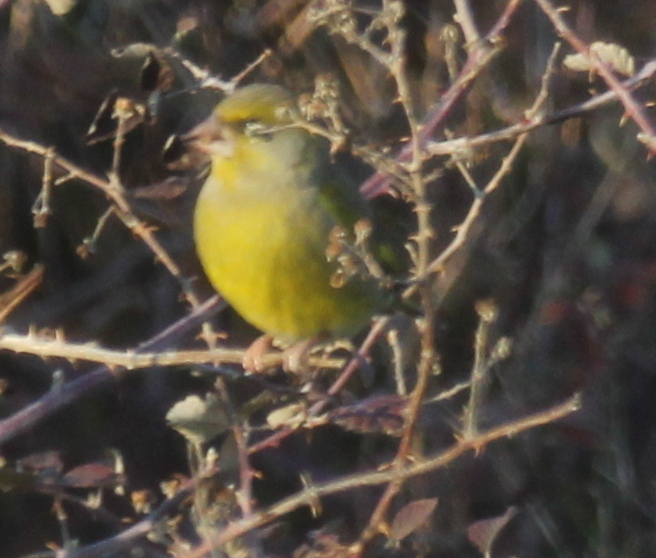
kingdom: Plantae
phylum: Tracheophyta
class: Liliopsida
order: Poales
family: Poaceae
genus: Chloris
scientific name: Chloris chloris
